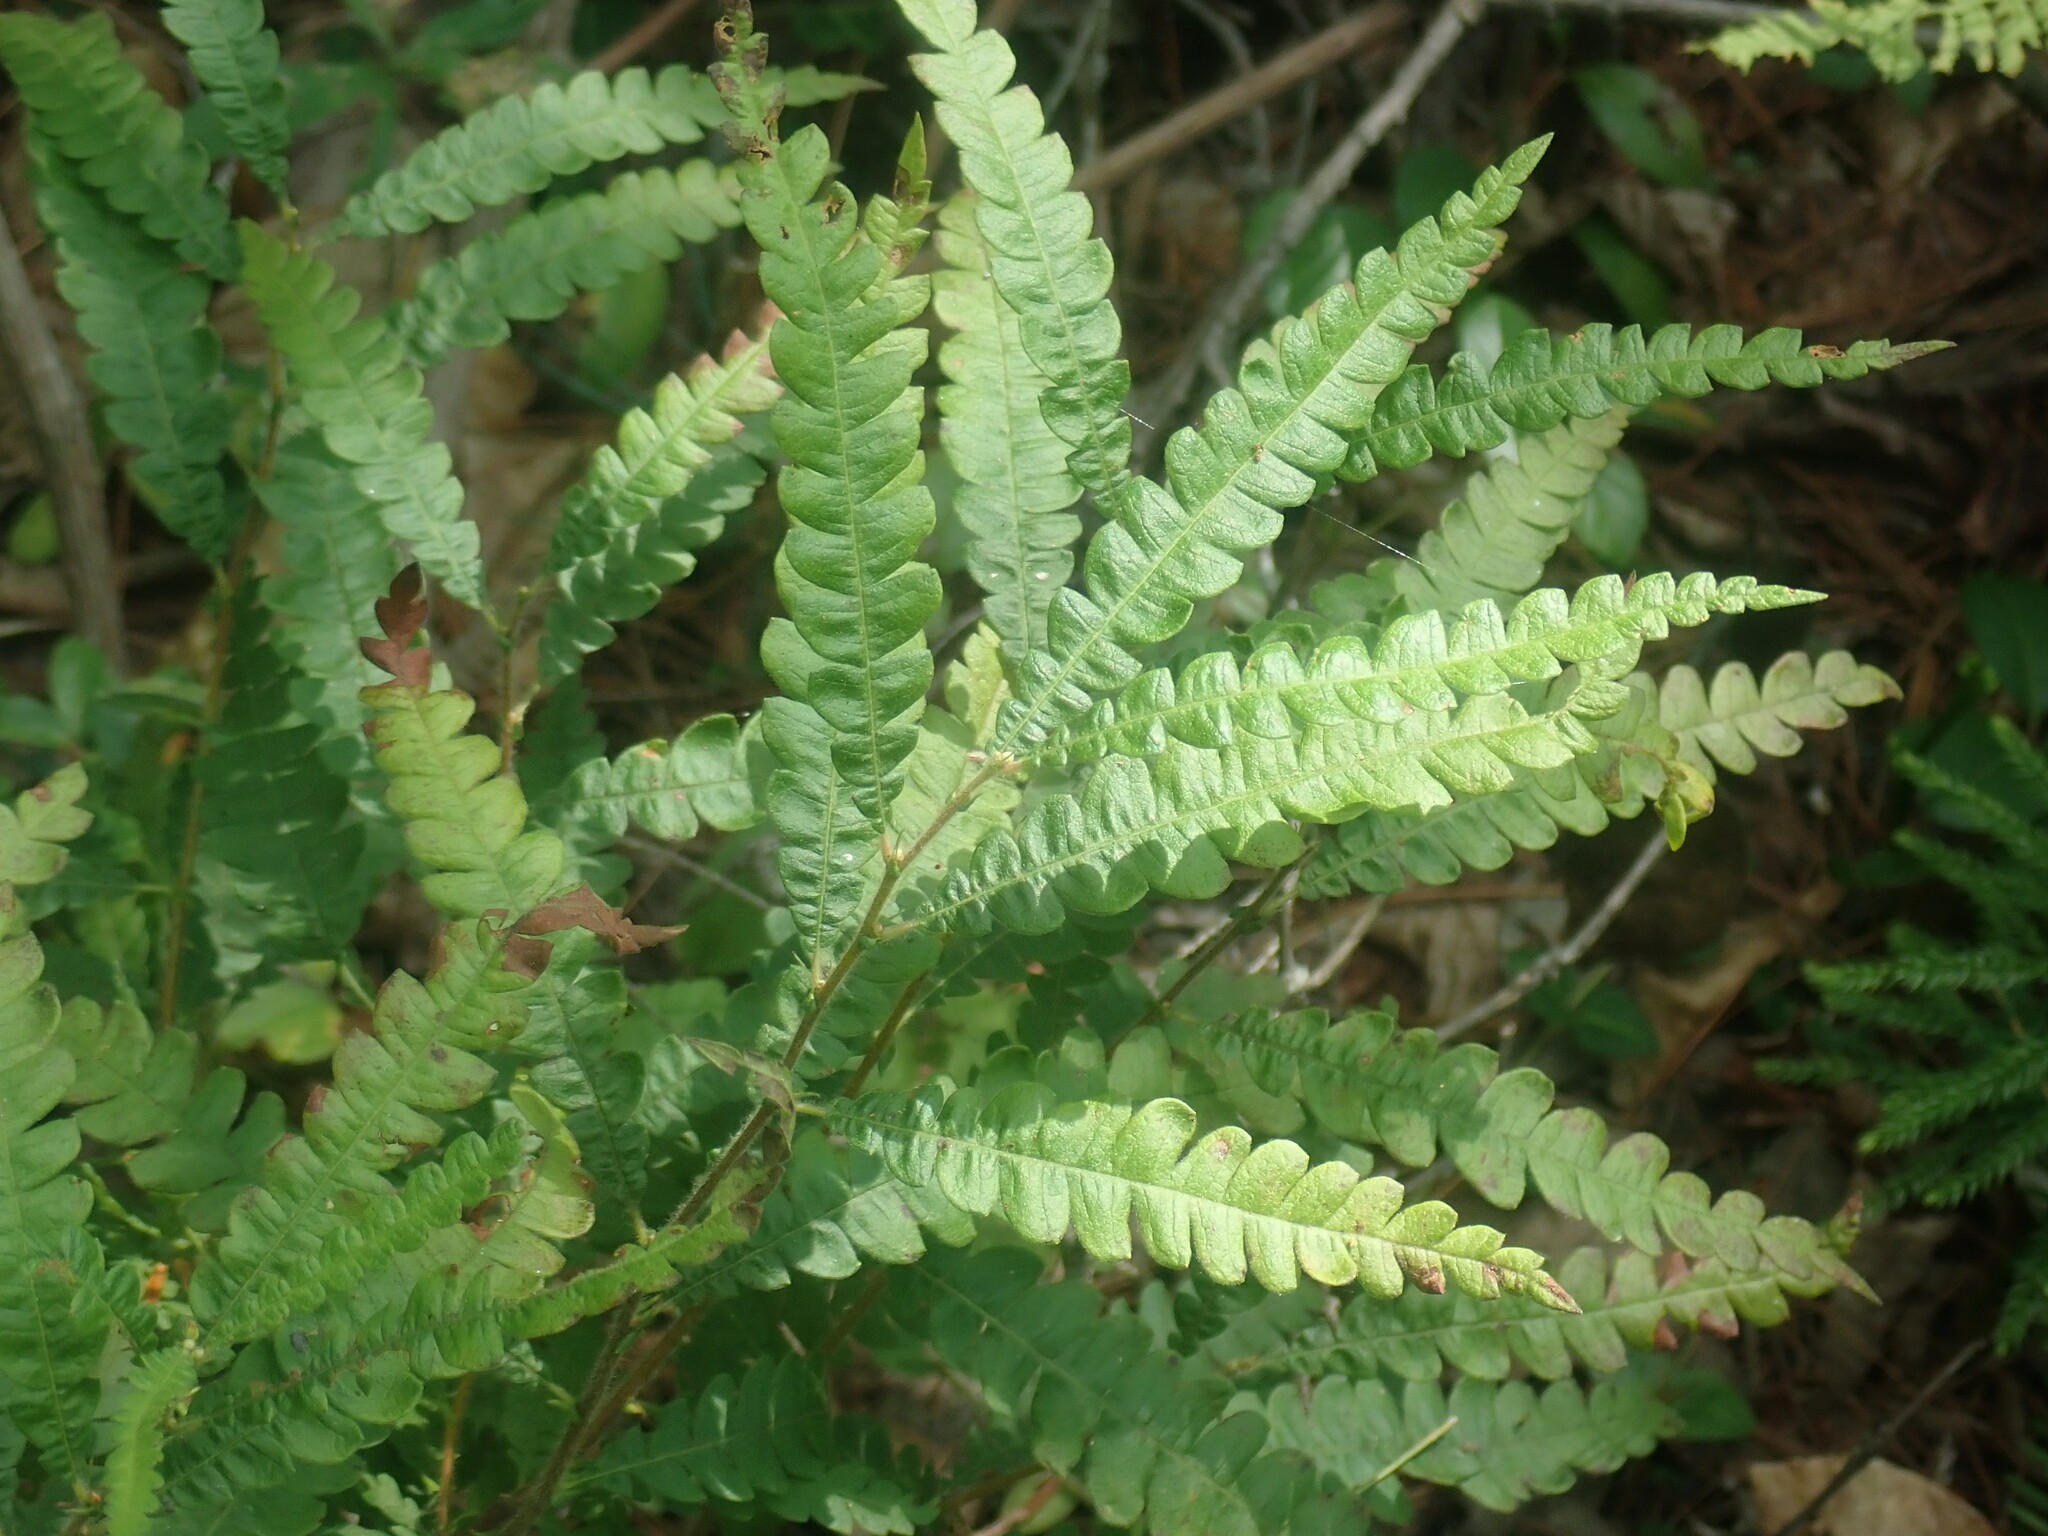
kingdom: Plantae
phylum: Tracheophyta
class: Magnoliopsida
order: Fagales
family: Myricaceae
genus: Comptonia
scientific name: Comptonia peregrina
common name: Sweet-fern
